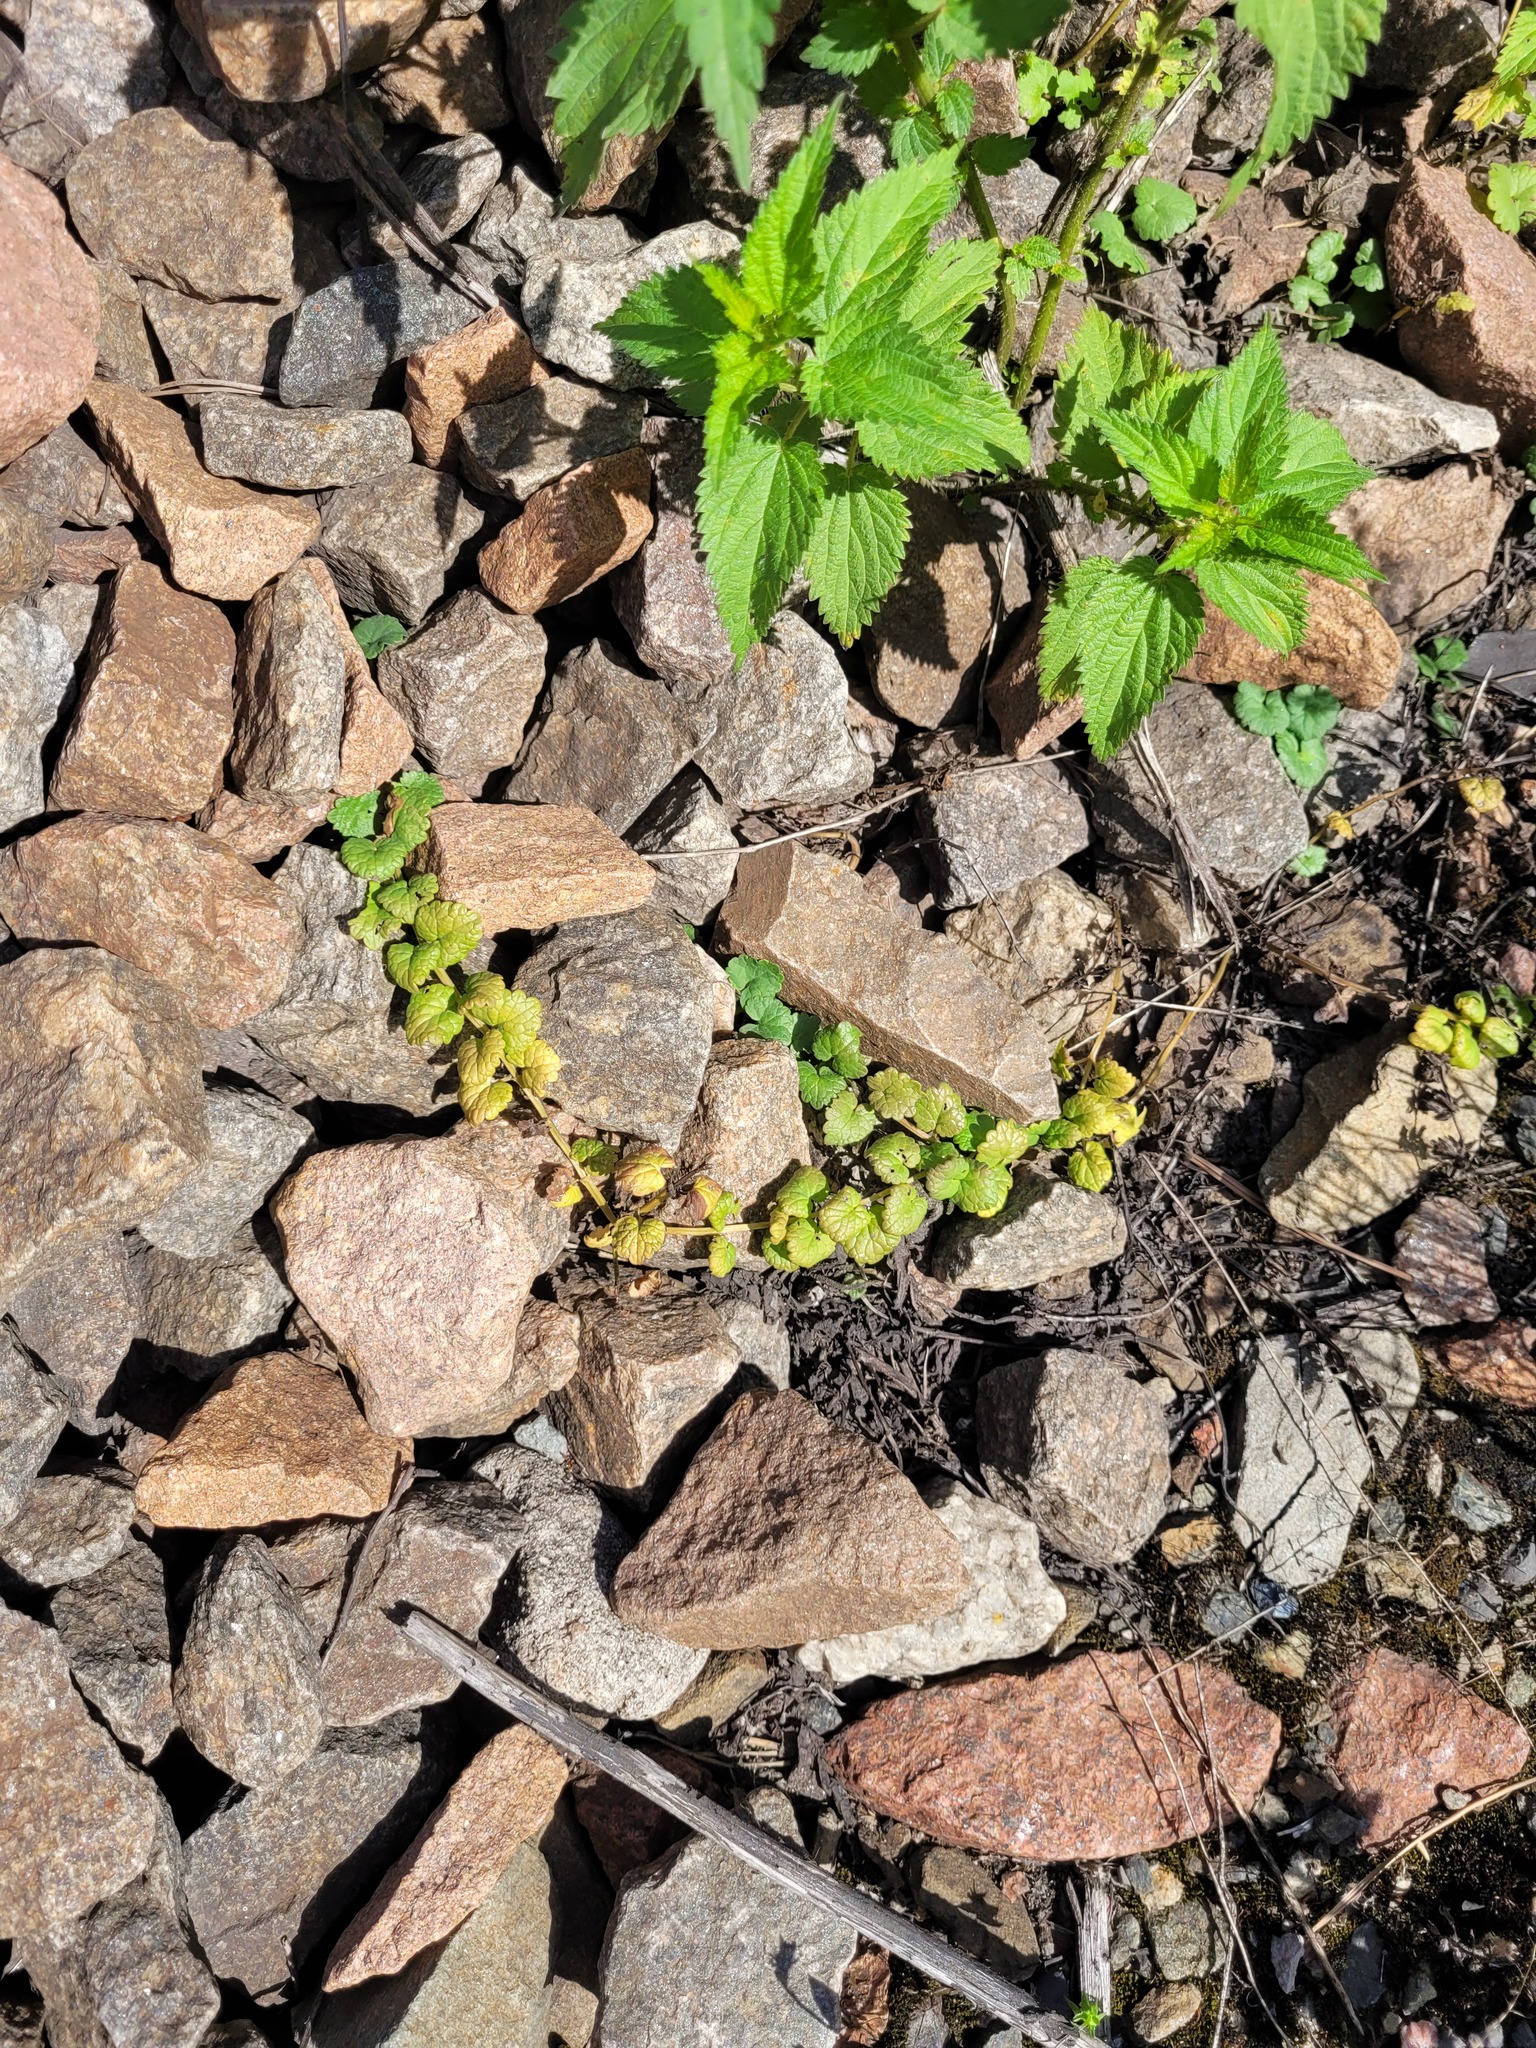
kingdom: Plantae
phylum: Tracheophyta
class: Magnoliopsida
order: Lamiales
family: Lamiaceae
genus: Glechoma
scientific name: Glechoma hederacea
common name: Ground ivy
